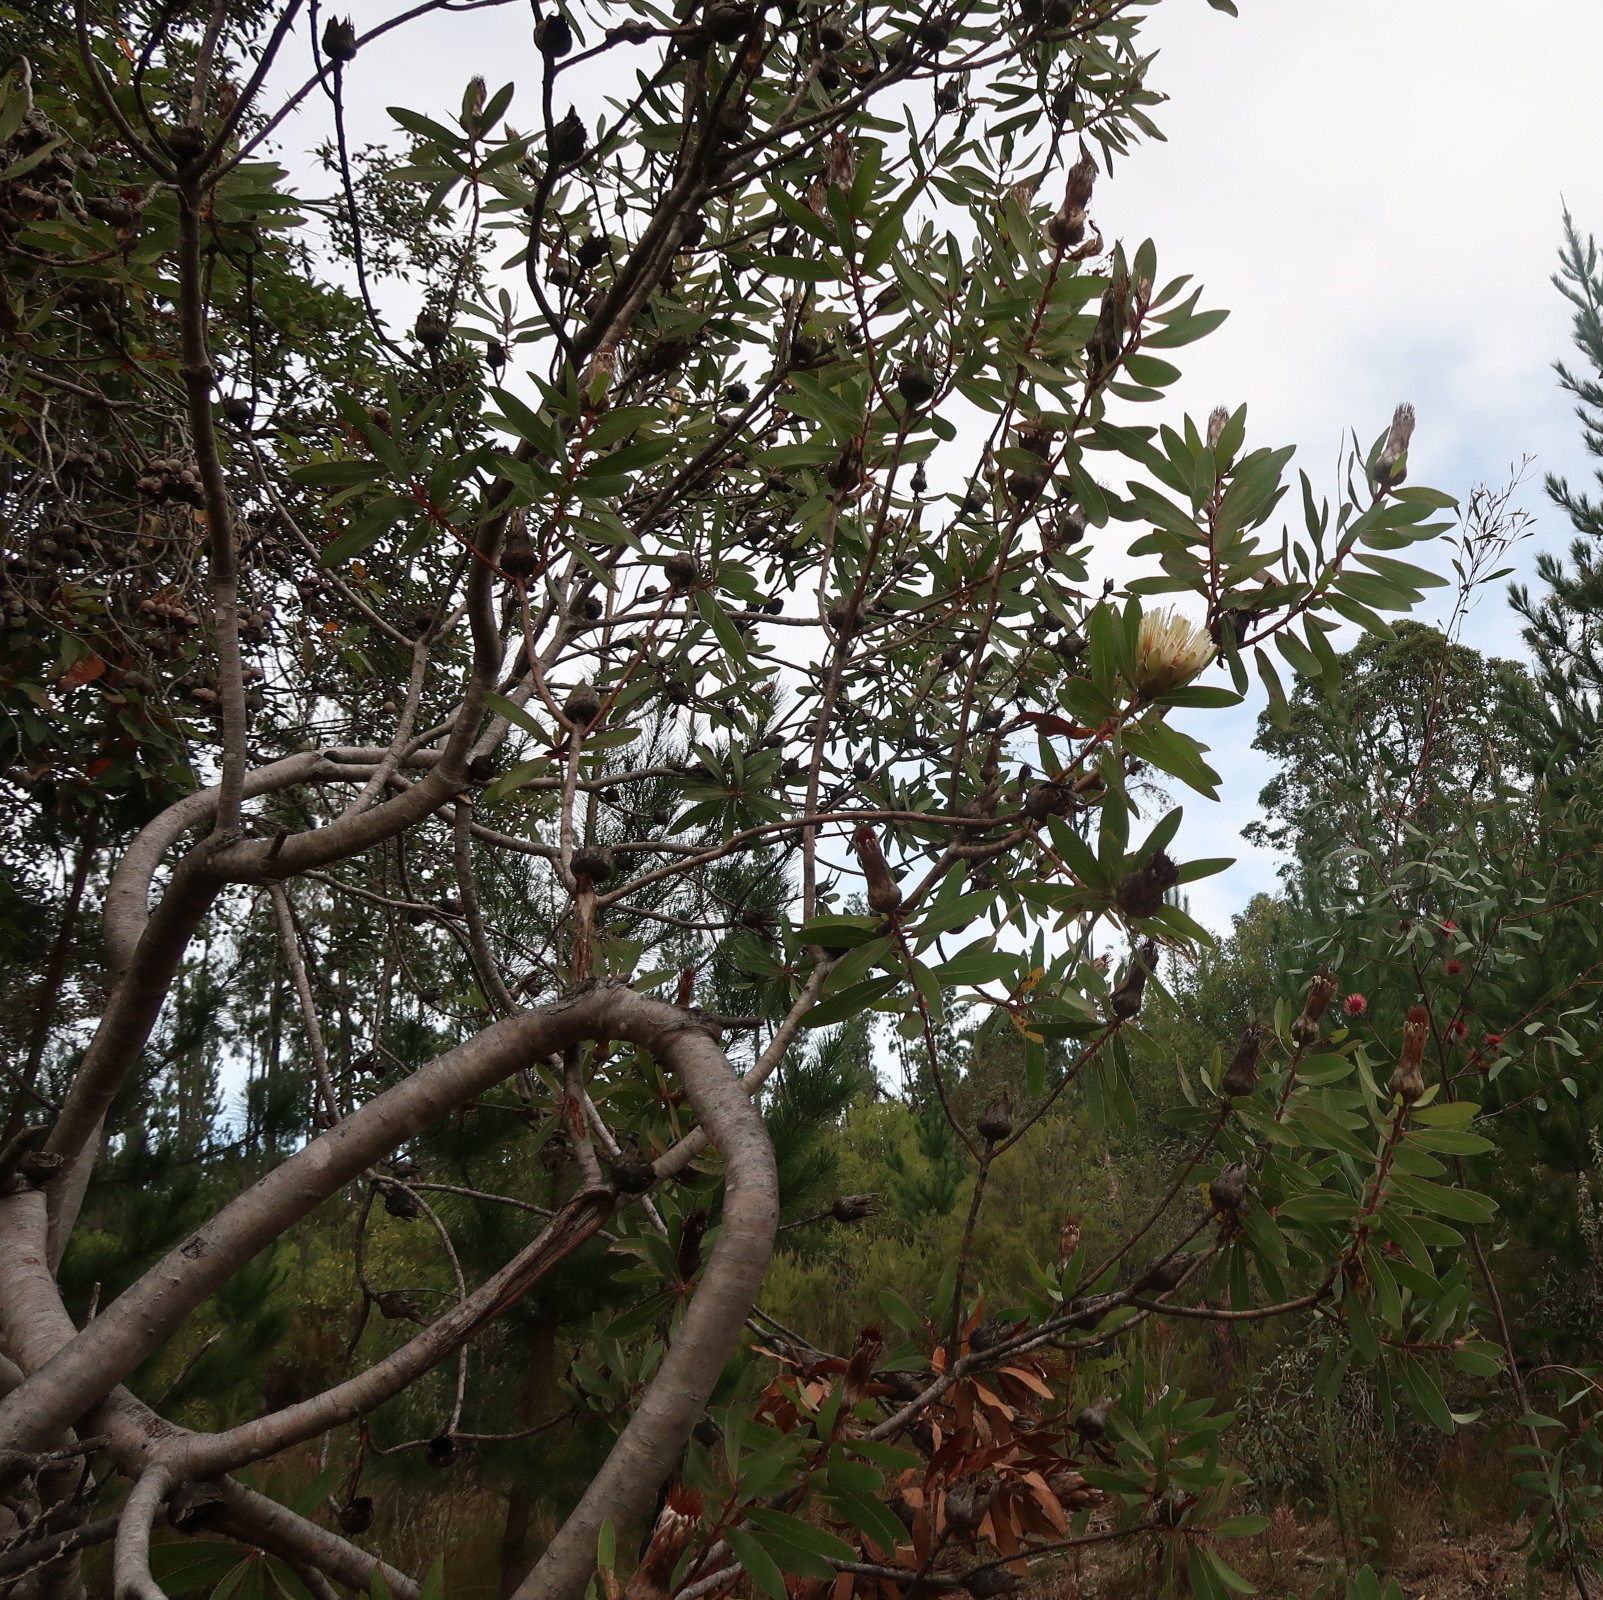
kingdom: Plantae
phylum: Tracheophyta
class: Magnoliopsida
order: Proteales
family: Proteaceae
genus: Protea
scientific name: Protea mundii
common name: Forest sugarbush
